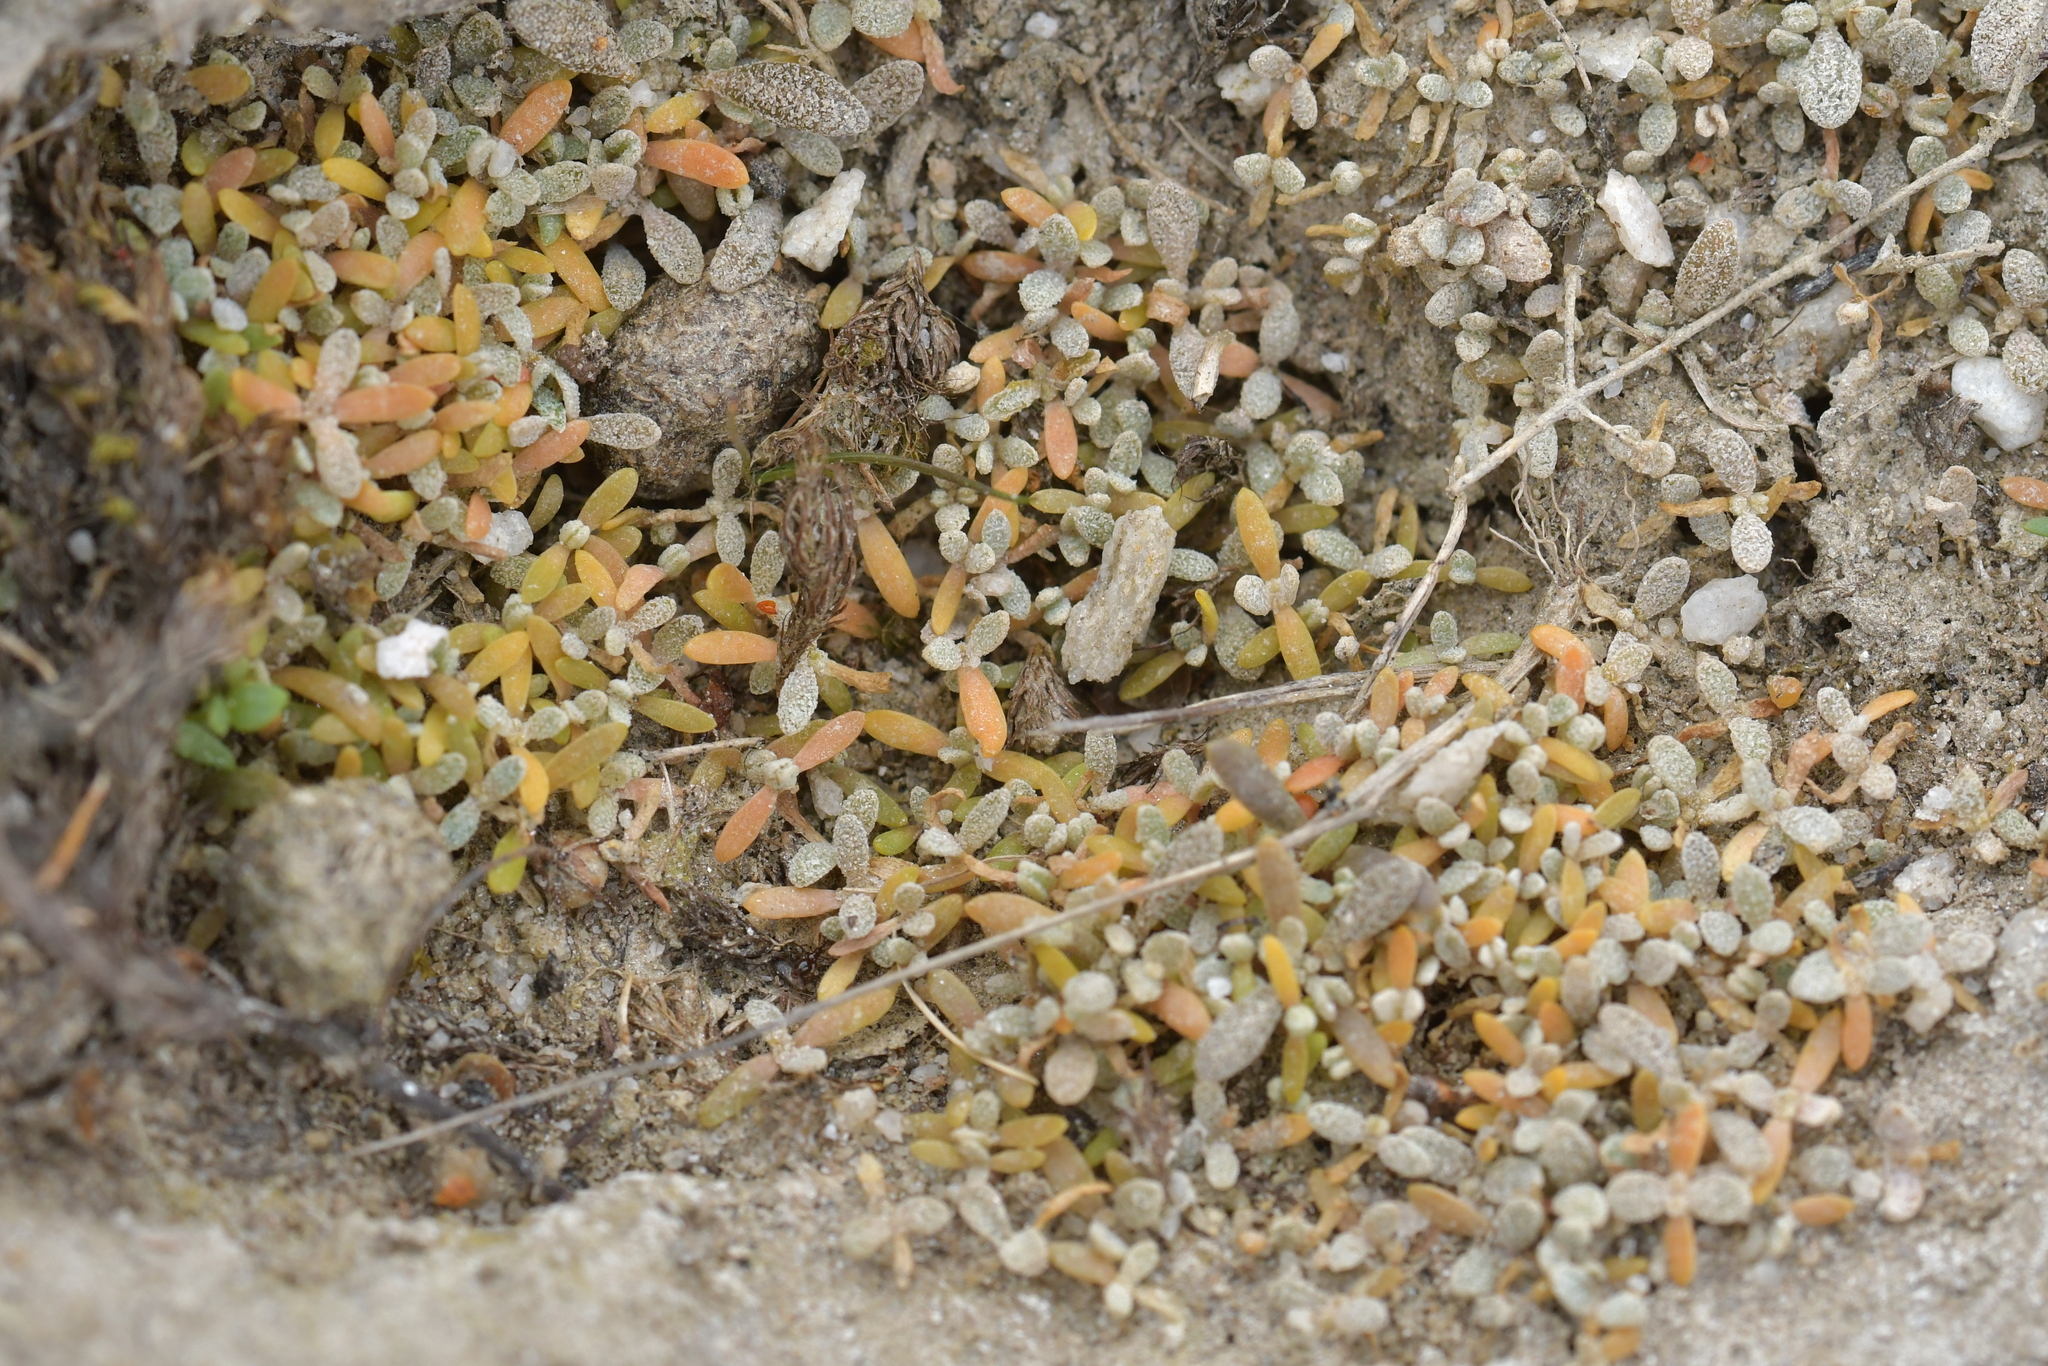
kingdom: Plantae
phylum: Tracheophyta
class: Magnoliopsida
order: Caryophyllales
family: Amaranthaceae
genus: Atriplex
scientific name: Atriplex buchananii
